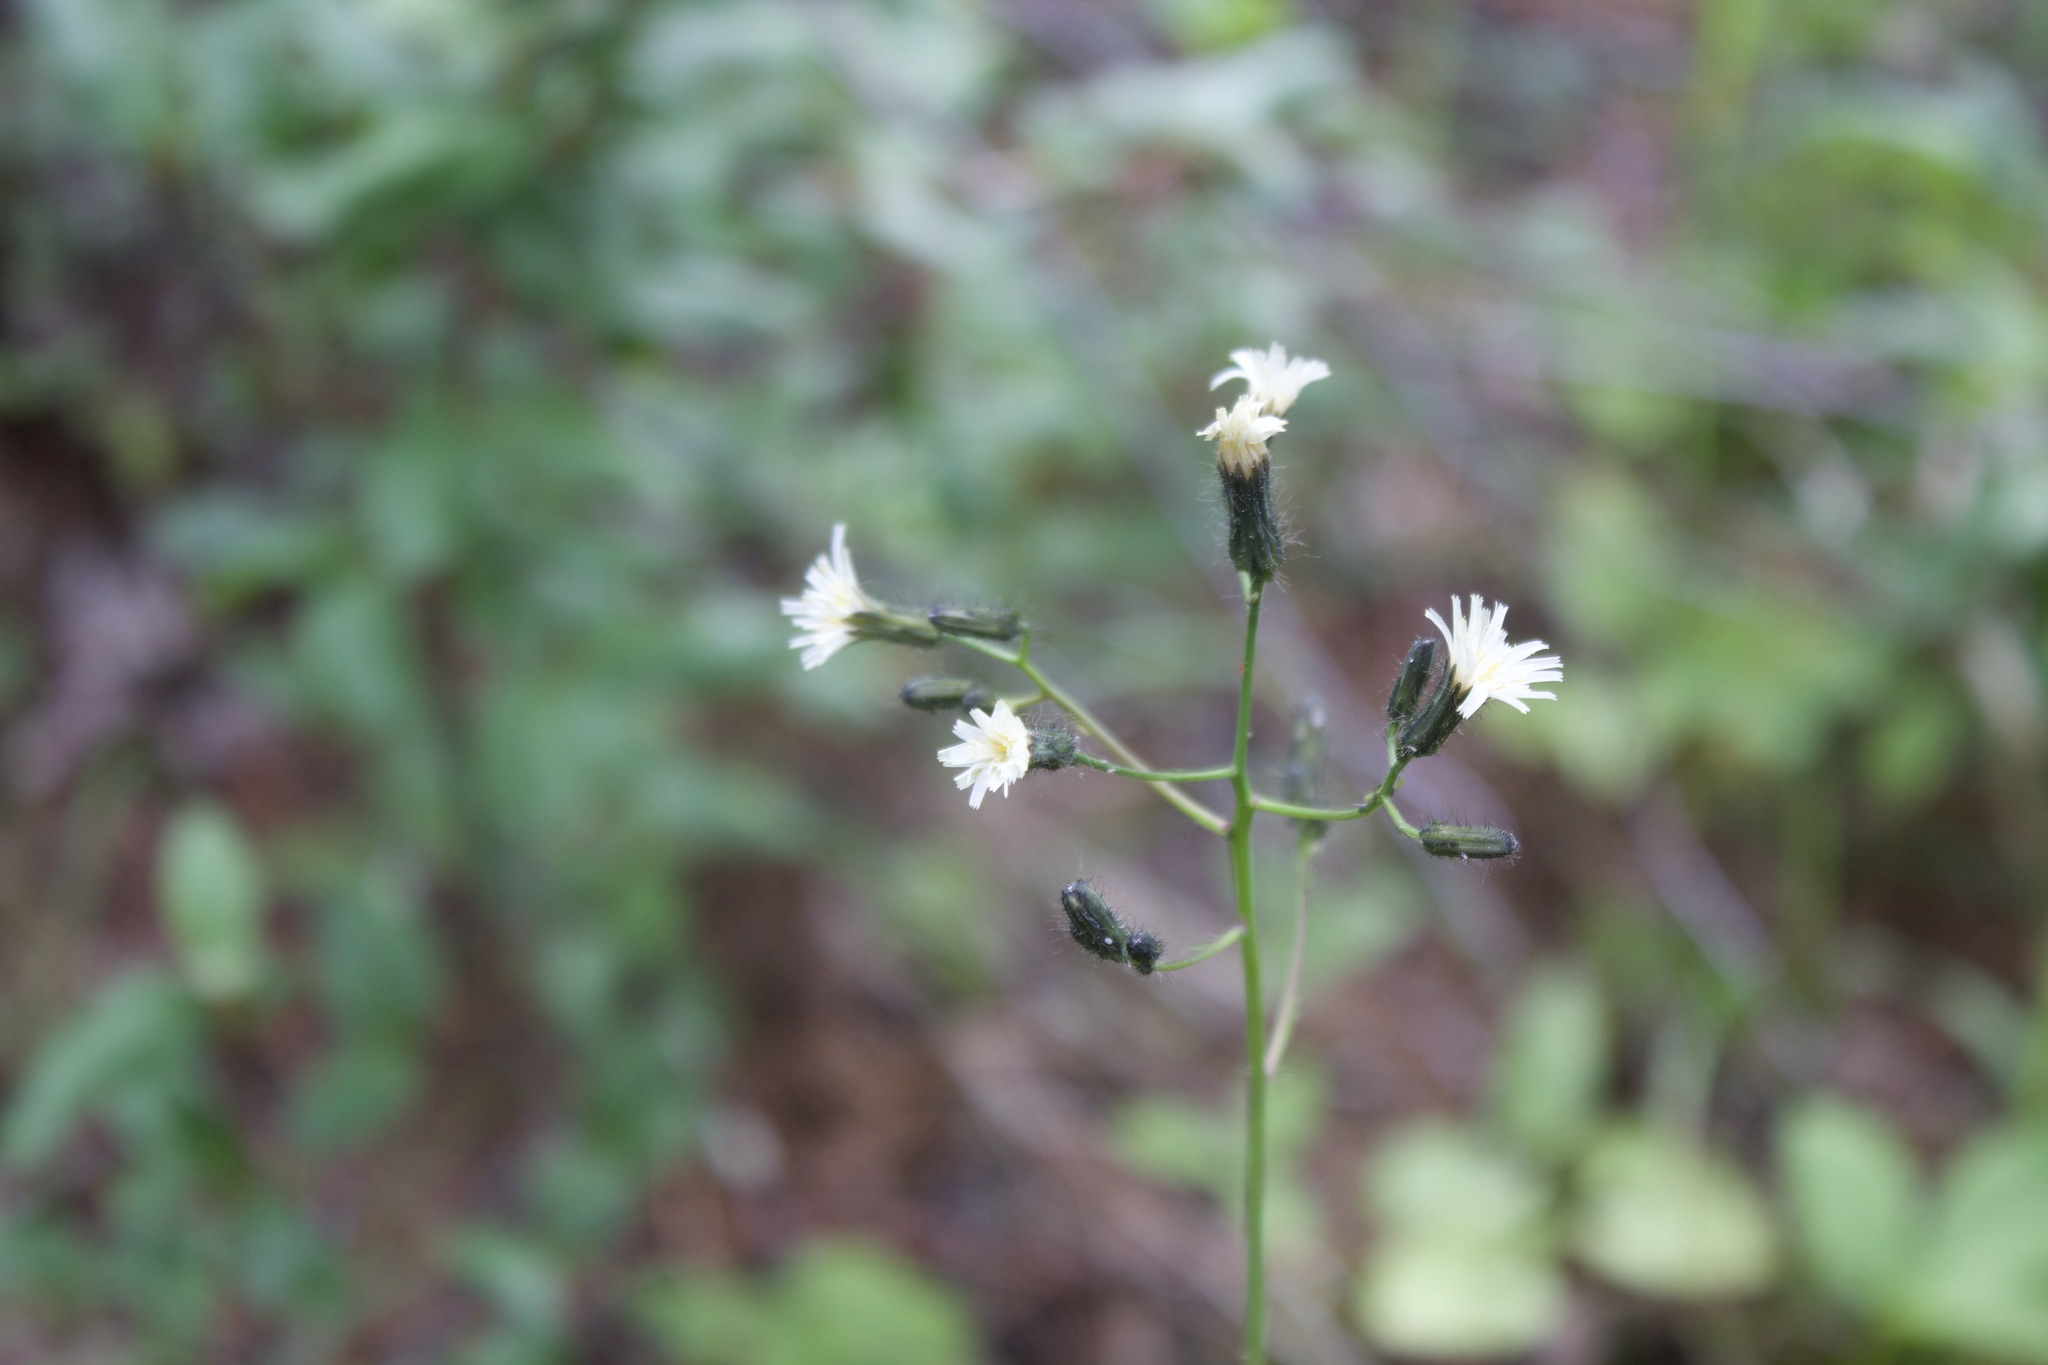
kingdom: Plantae
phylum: Tracheophyta
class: Magnoliopsida
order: Asterales
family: Asteraceae
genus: Hieracium
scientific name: Hieracium albiflorum
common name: White hawkweed
